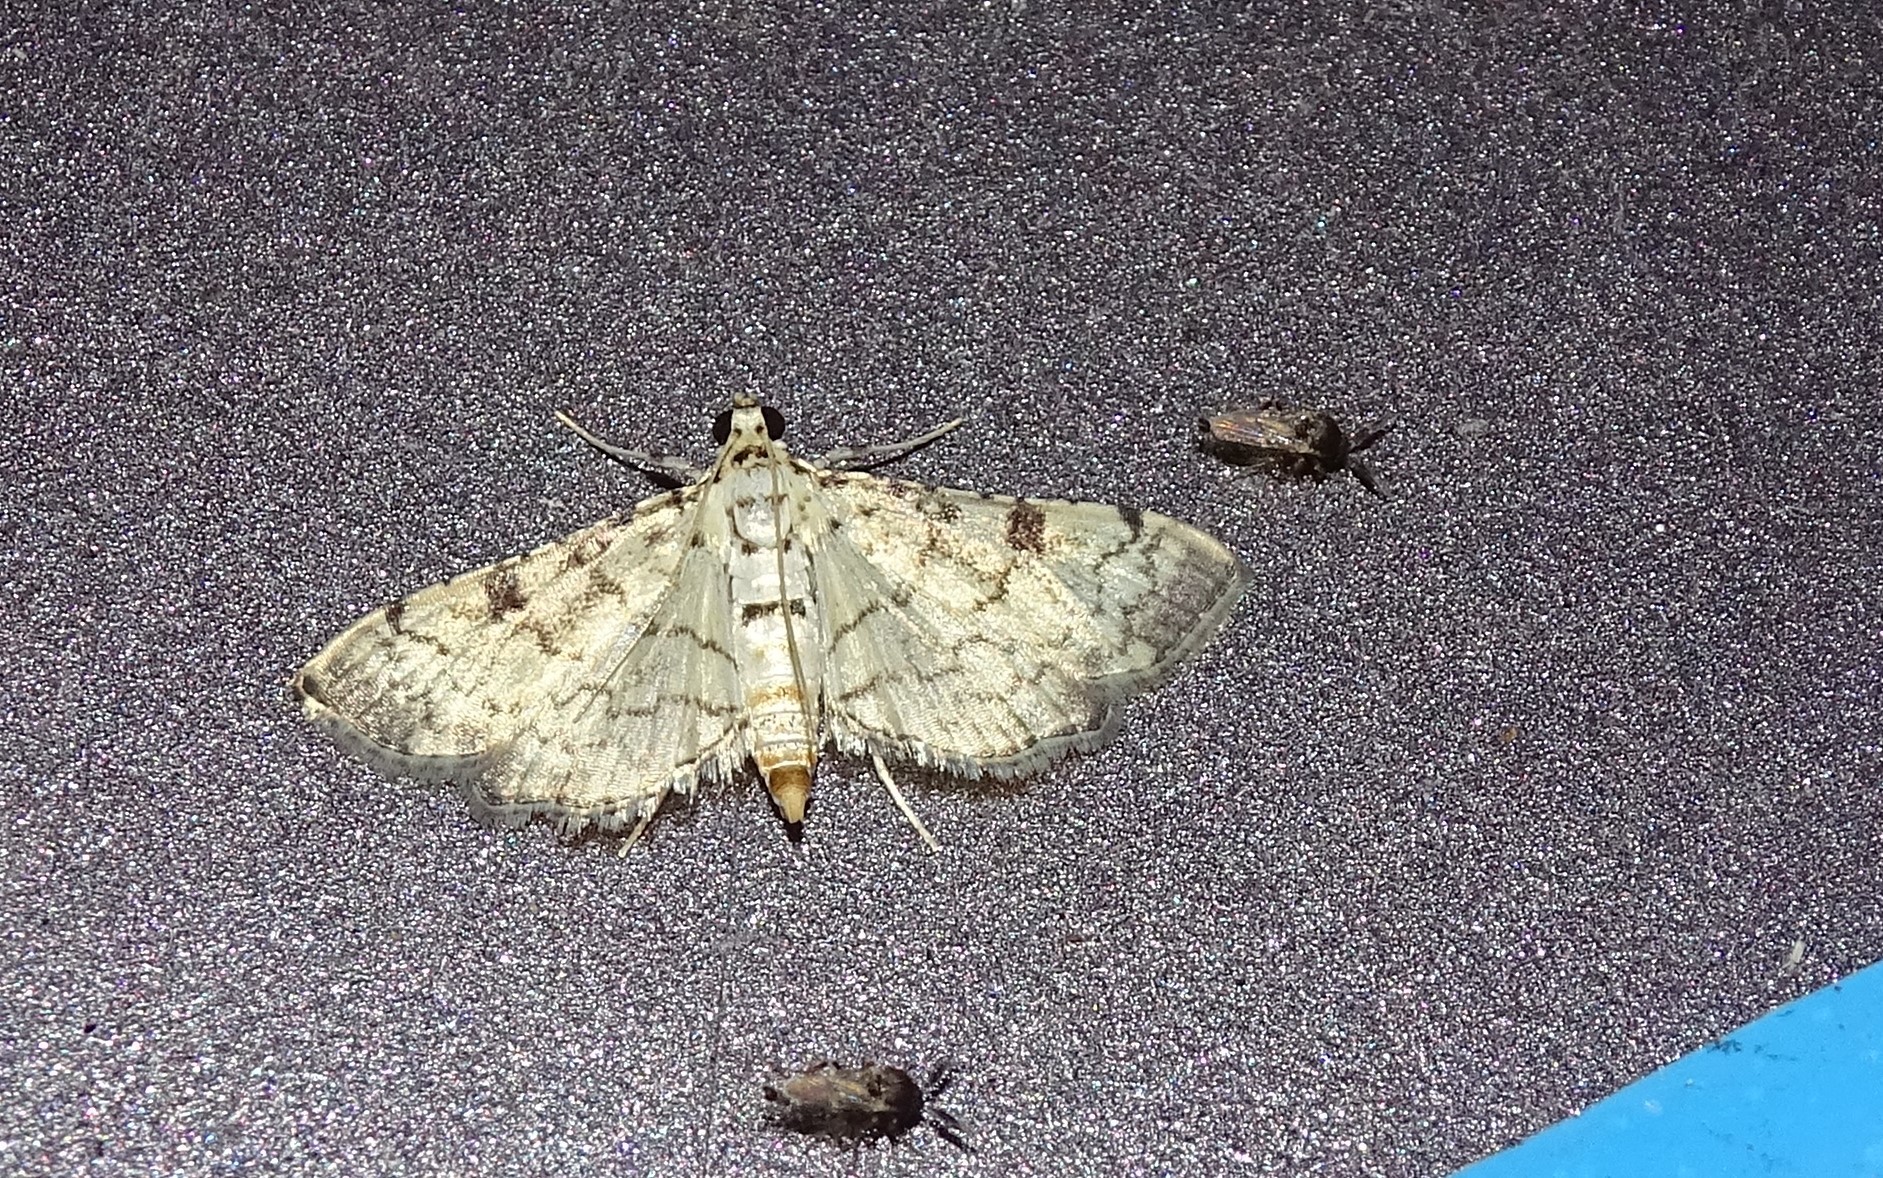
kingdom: Animalia
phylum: Arthropoda
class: Insecta
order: Lepidoptera
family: Crambidae
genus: Hileithia
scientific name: Hileithia differentialis
